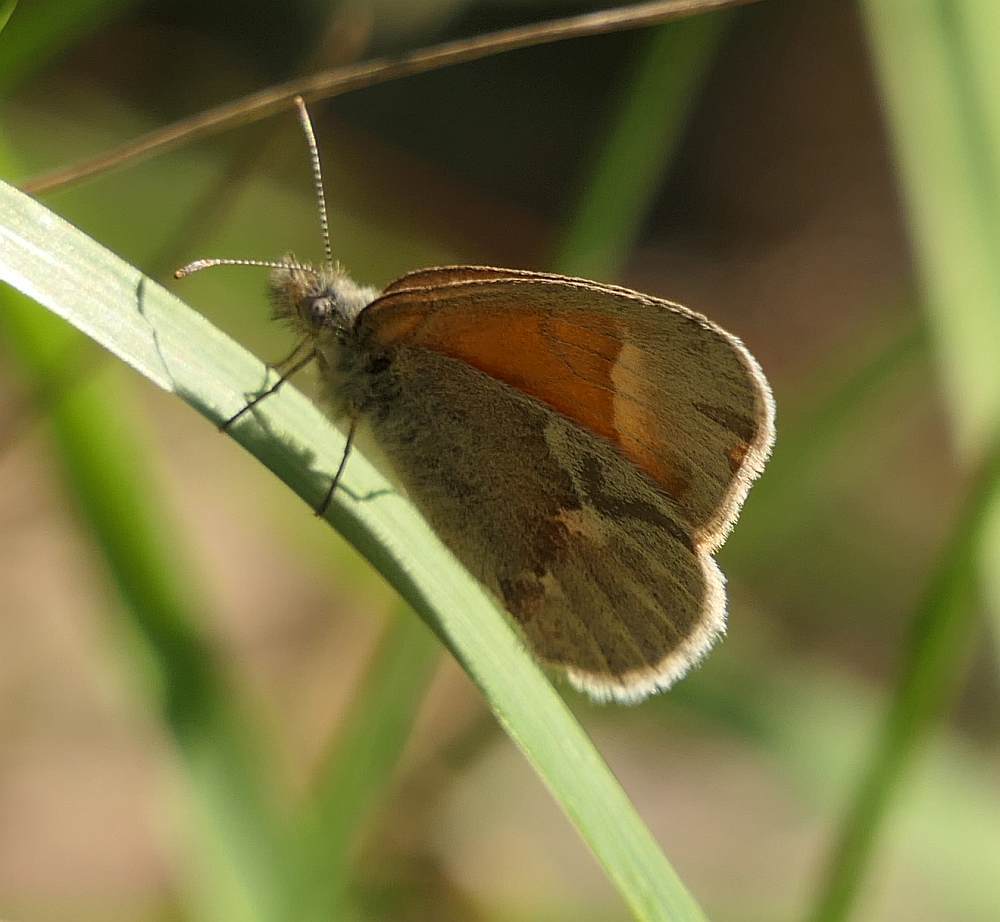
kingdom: Animalia
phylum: Arthropoda
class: Insecta
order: Lepidoptera
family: Nymphalidae
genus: Coenonympha
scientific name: Coenonympha california
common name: Common ringlet
